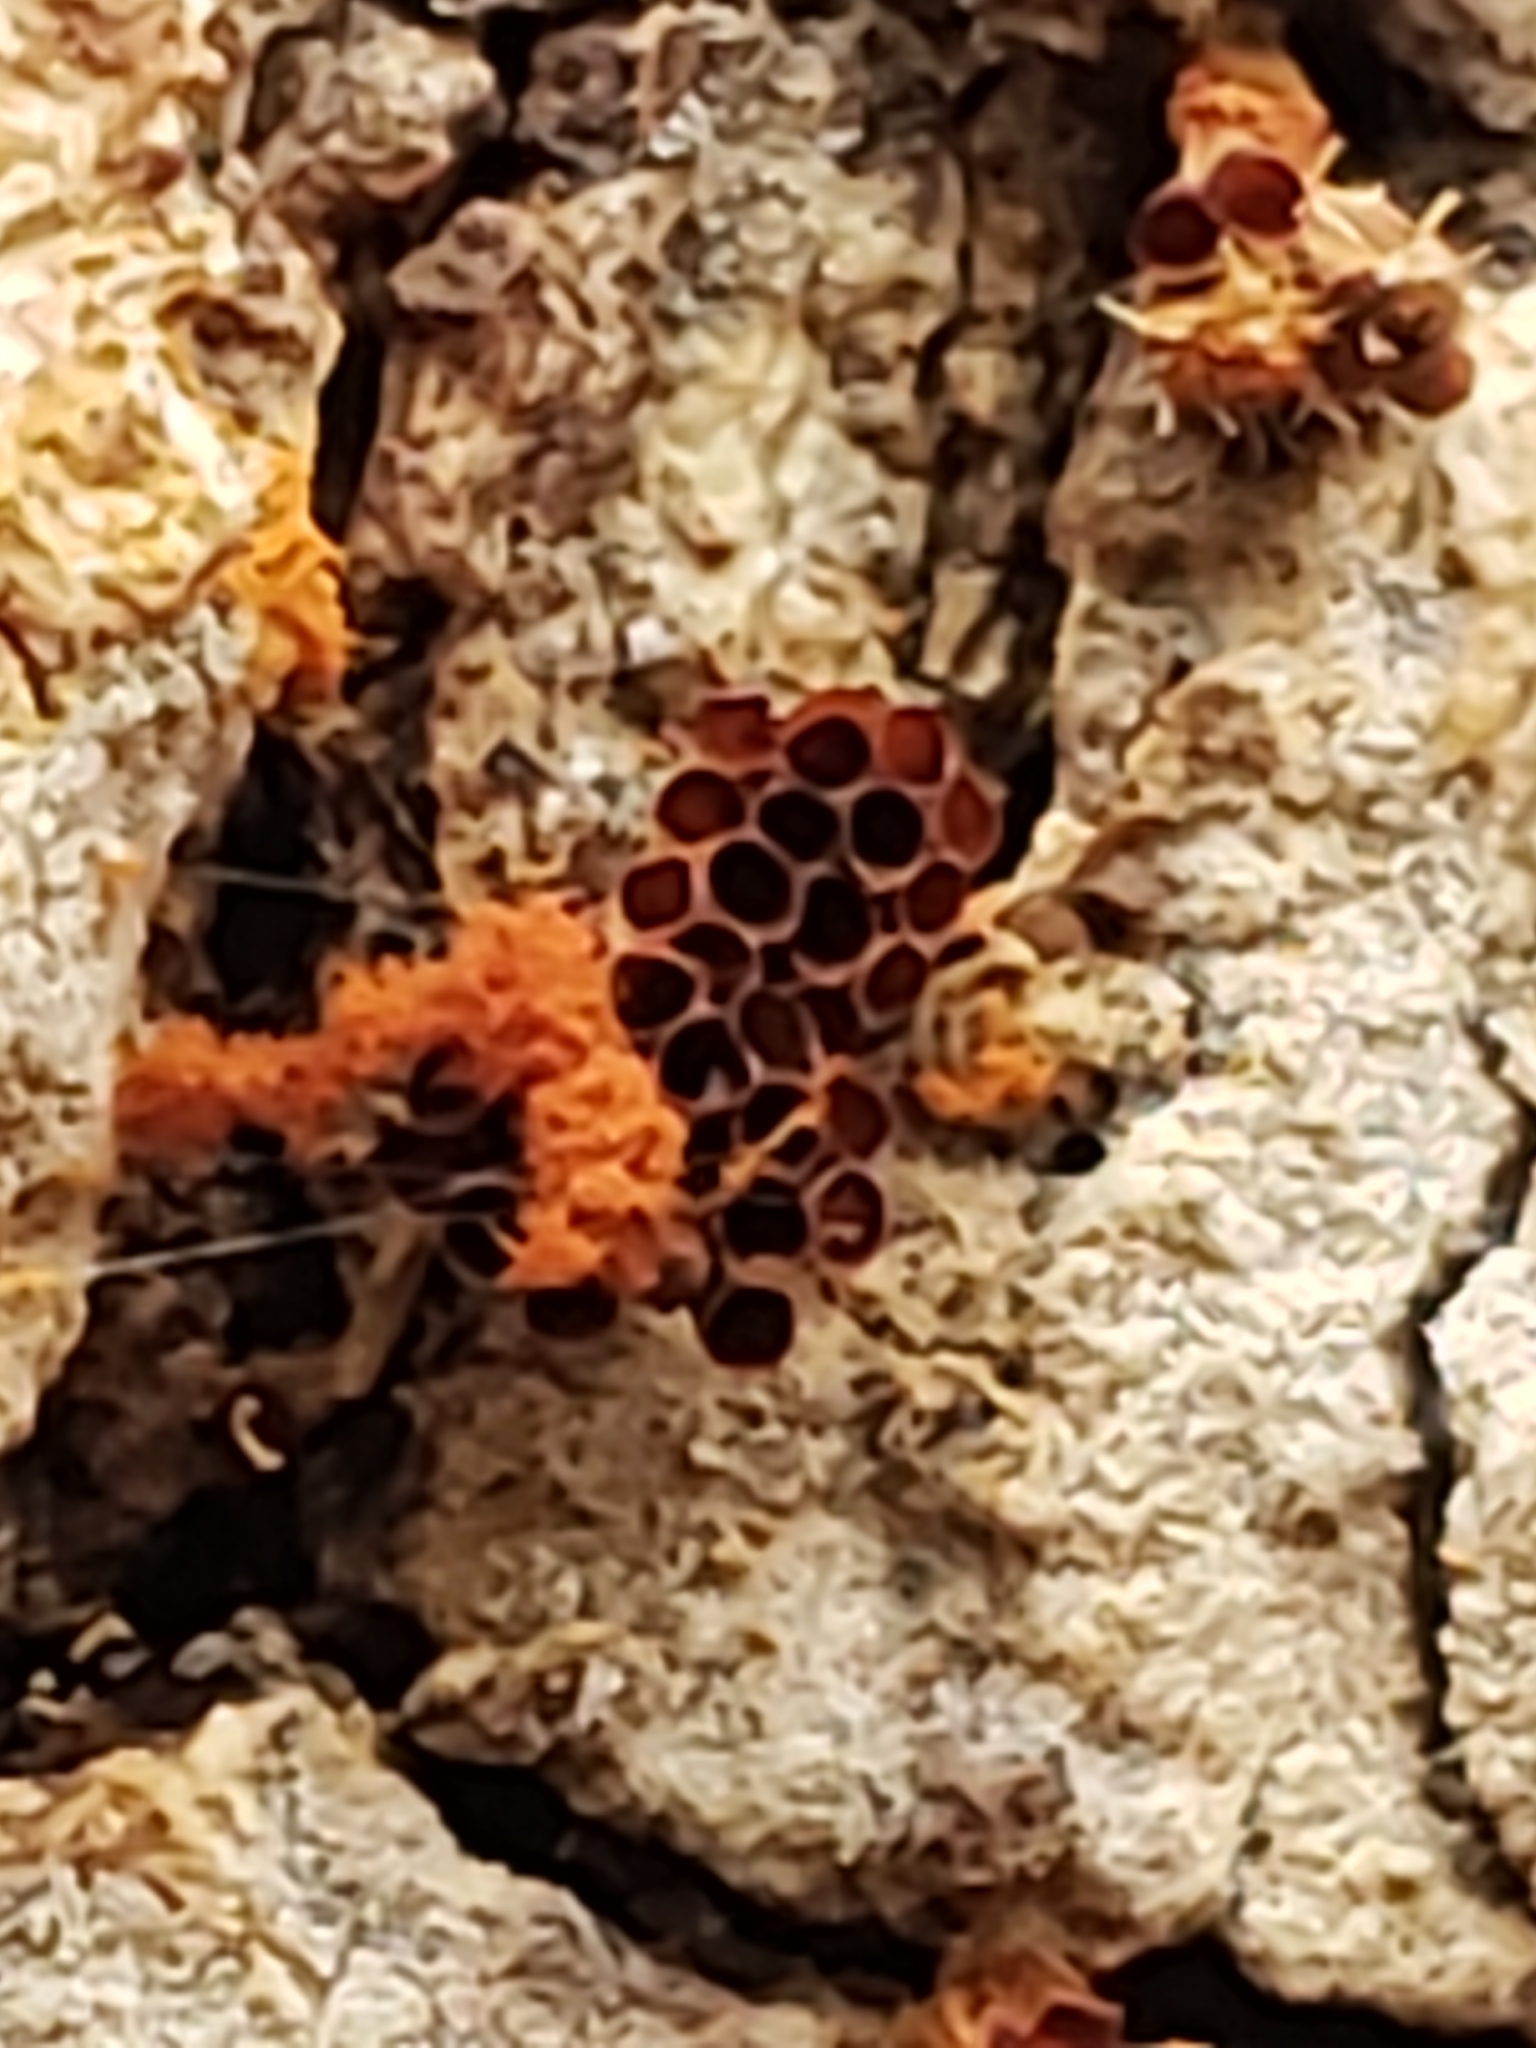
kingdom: Protozoa
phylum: Mycetozoa
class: Myxomycetes
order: Trichiales
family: Trichiaceae
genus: Metatrichia
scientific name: Metatrichia vesparia
